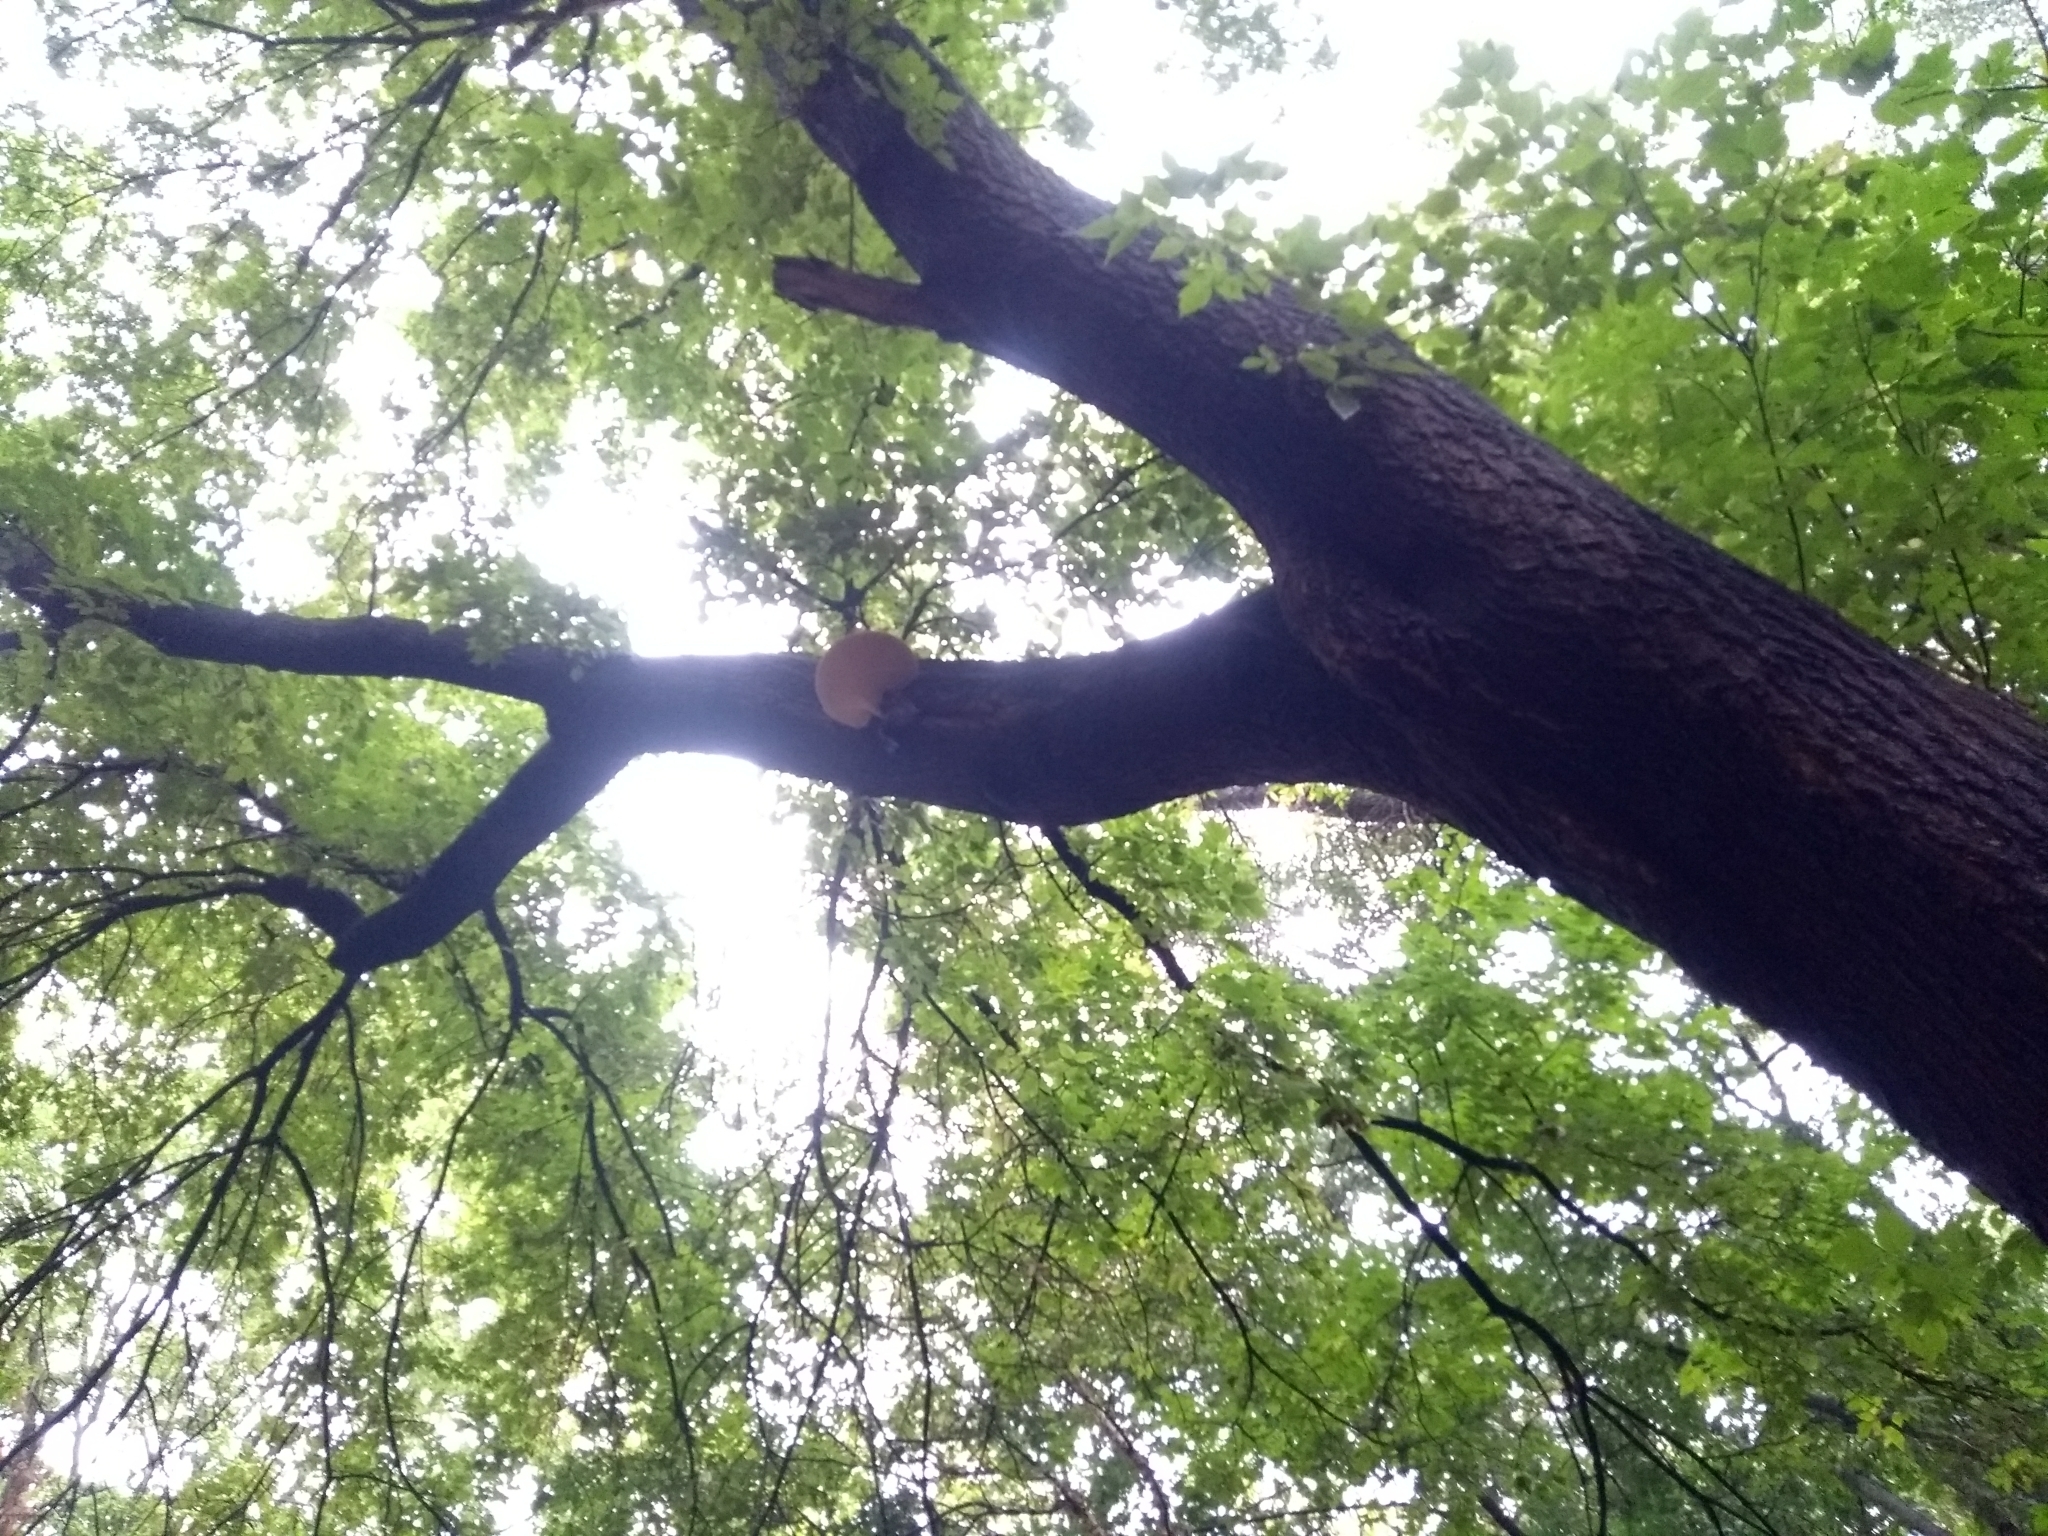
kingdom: Fungi
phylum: Basidiomycota
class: Agaricomycetes
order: Polyporales
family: Polyporaceae
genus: Cerioporus
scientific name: Cerioporus squamosus
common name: Dryad's saddle
